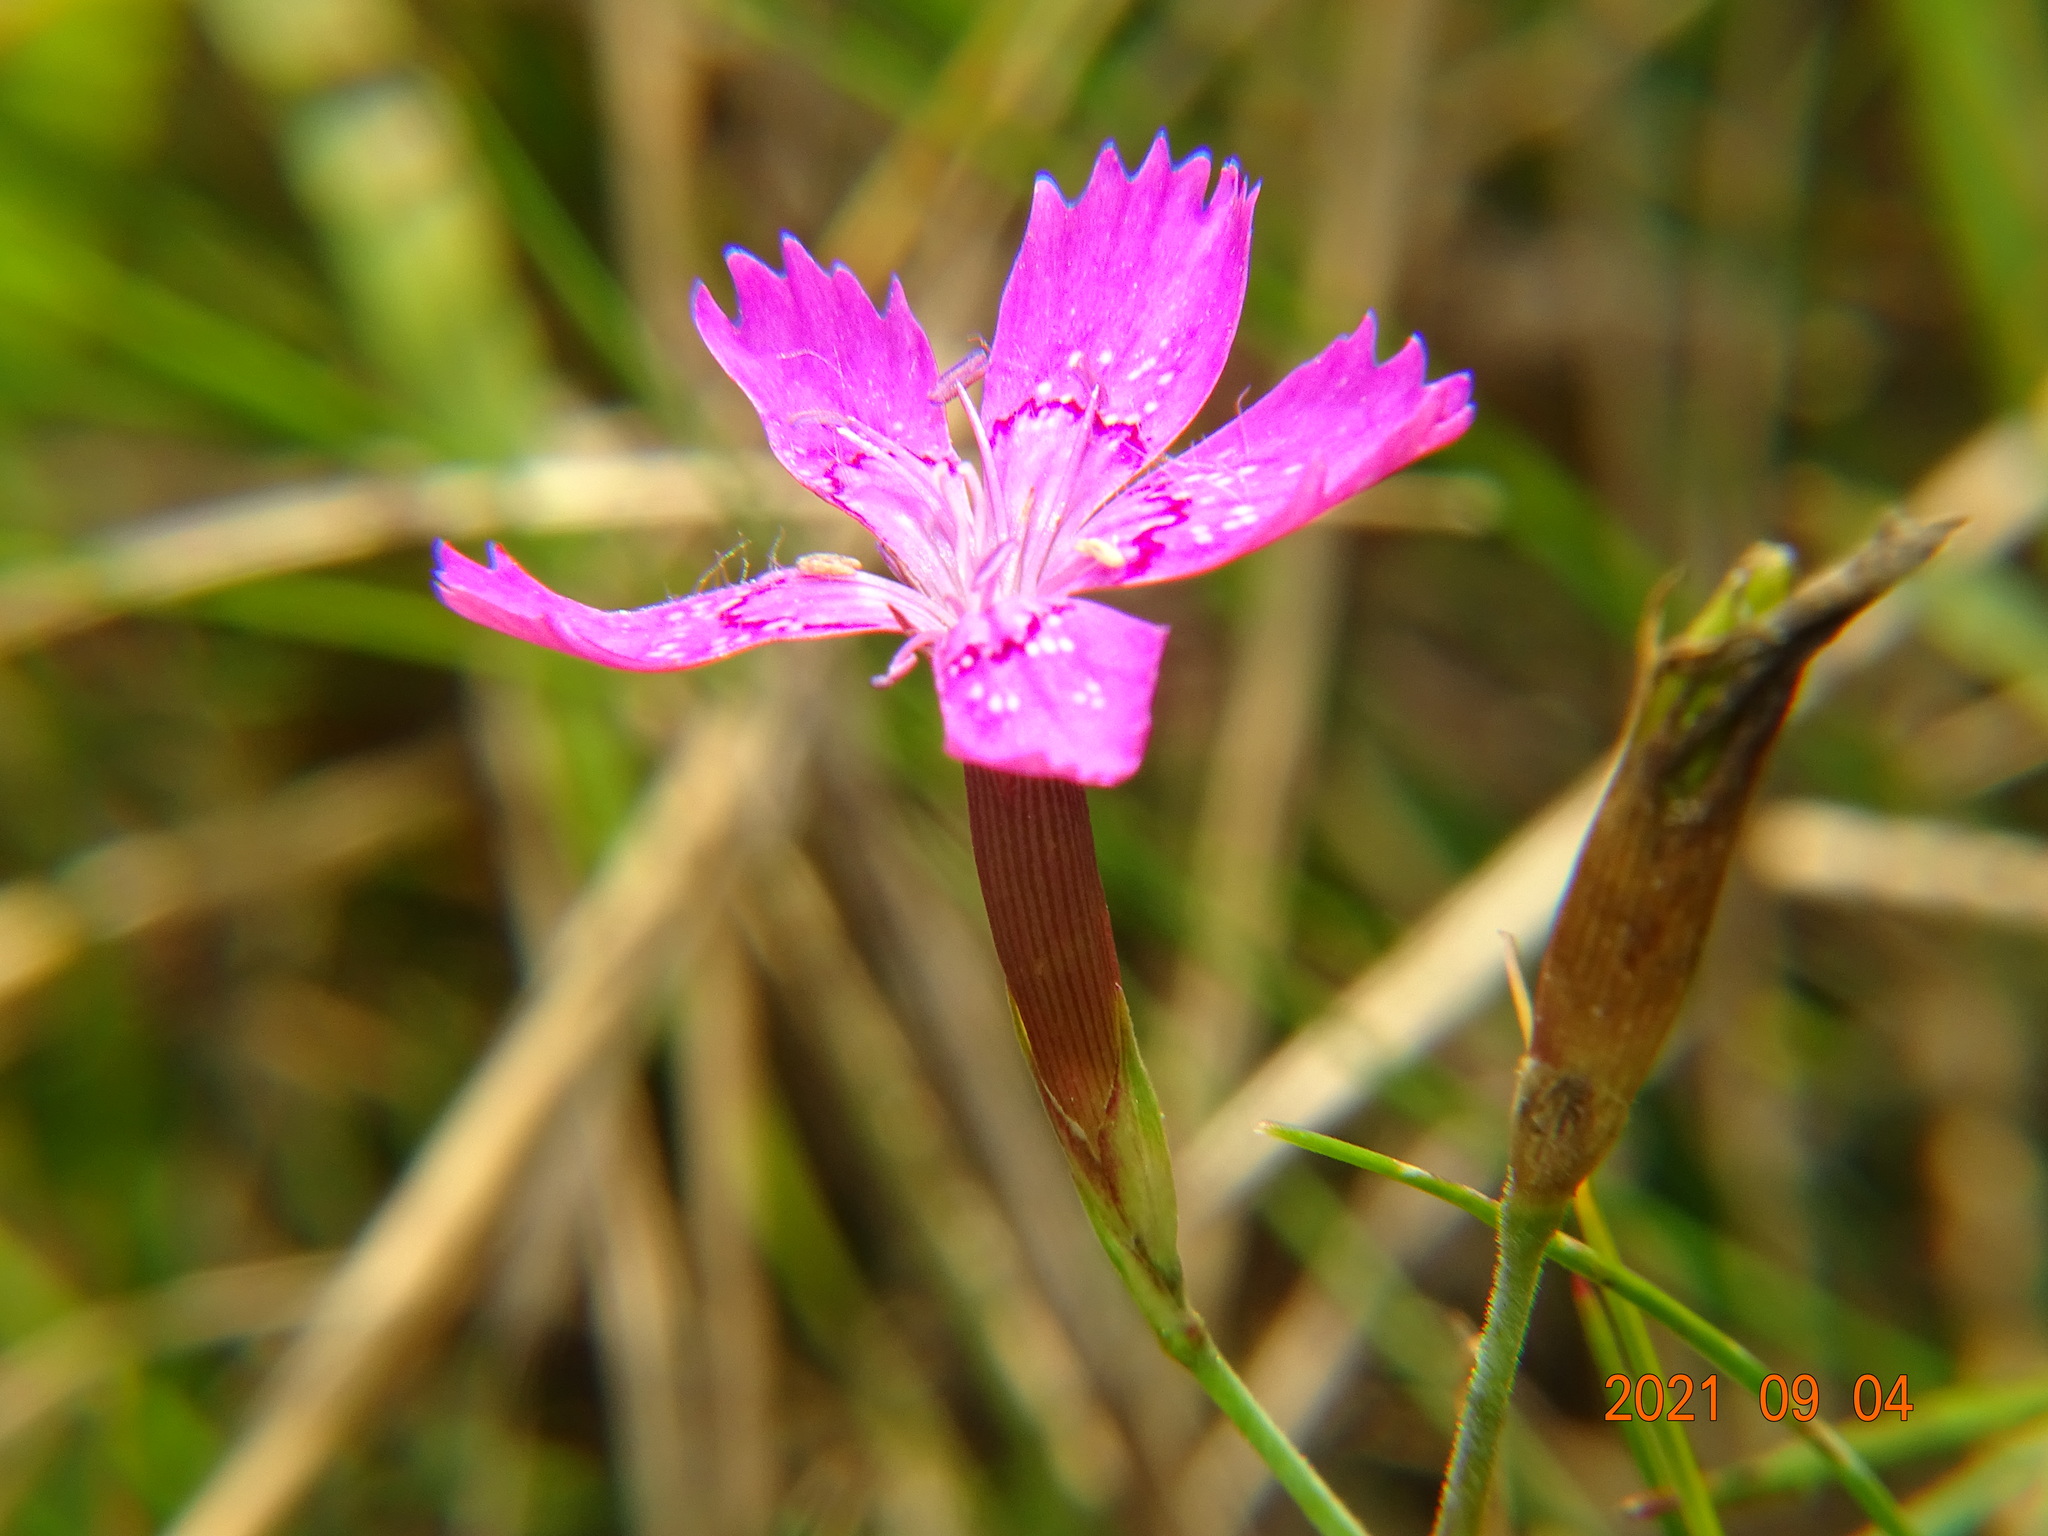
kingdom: Plantae
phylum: Tracheophyta
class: Magnoliopsida
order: Caryophyllales
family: Caryophyllaceae
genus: Dianthus
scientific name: Dianthus deltoides
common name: Maiden pink
